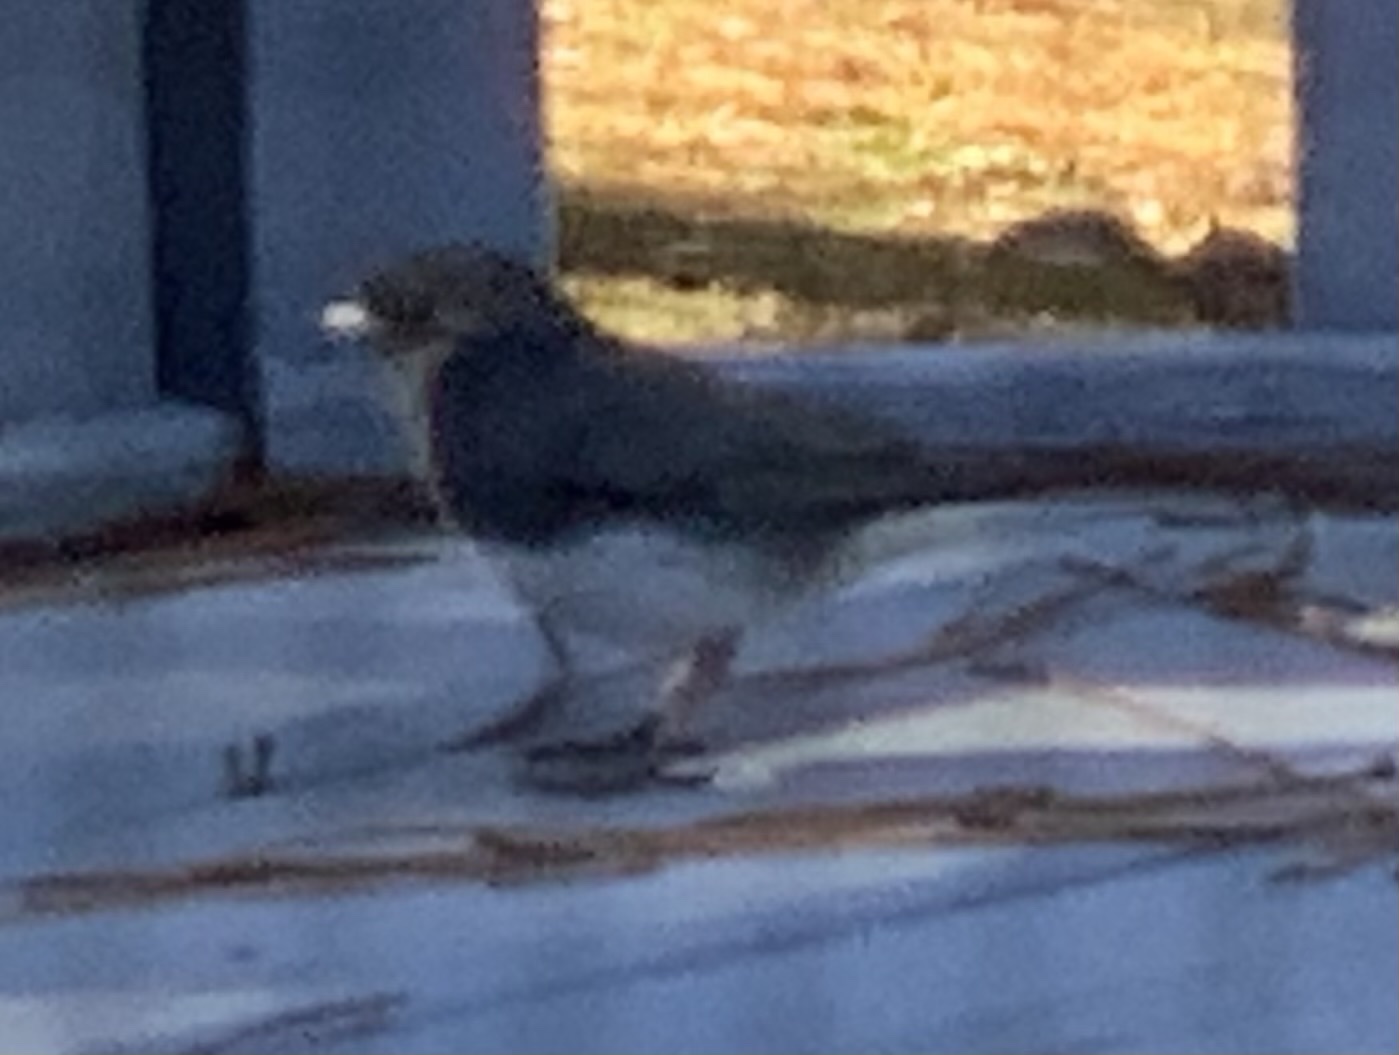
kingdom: Animalia
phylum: Chordata
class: Aves
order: Passeriformes
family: Passerellidae
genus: Junco
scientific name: Junco hyemalis
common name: Dark-eyed junco
